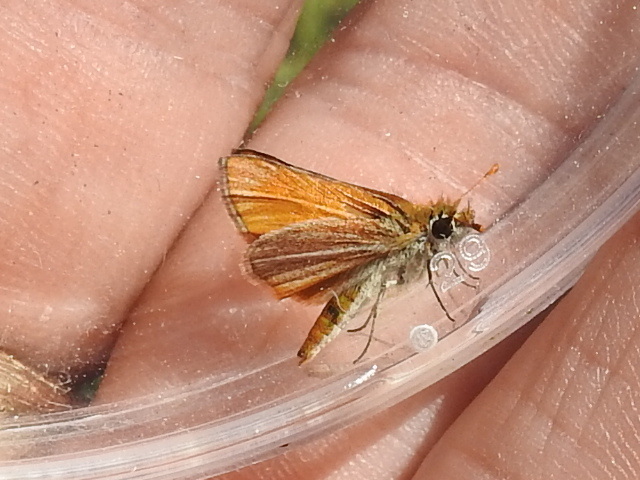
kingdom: Animalia
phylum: Arthropoda
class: Insecta
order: Lepidoptera
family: Hesperiidae
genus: Copaeodes
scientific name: Copaeodes minima
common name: Southern skipperling
